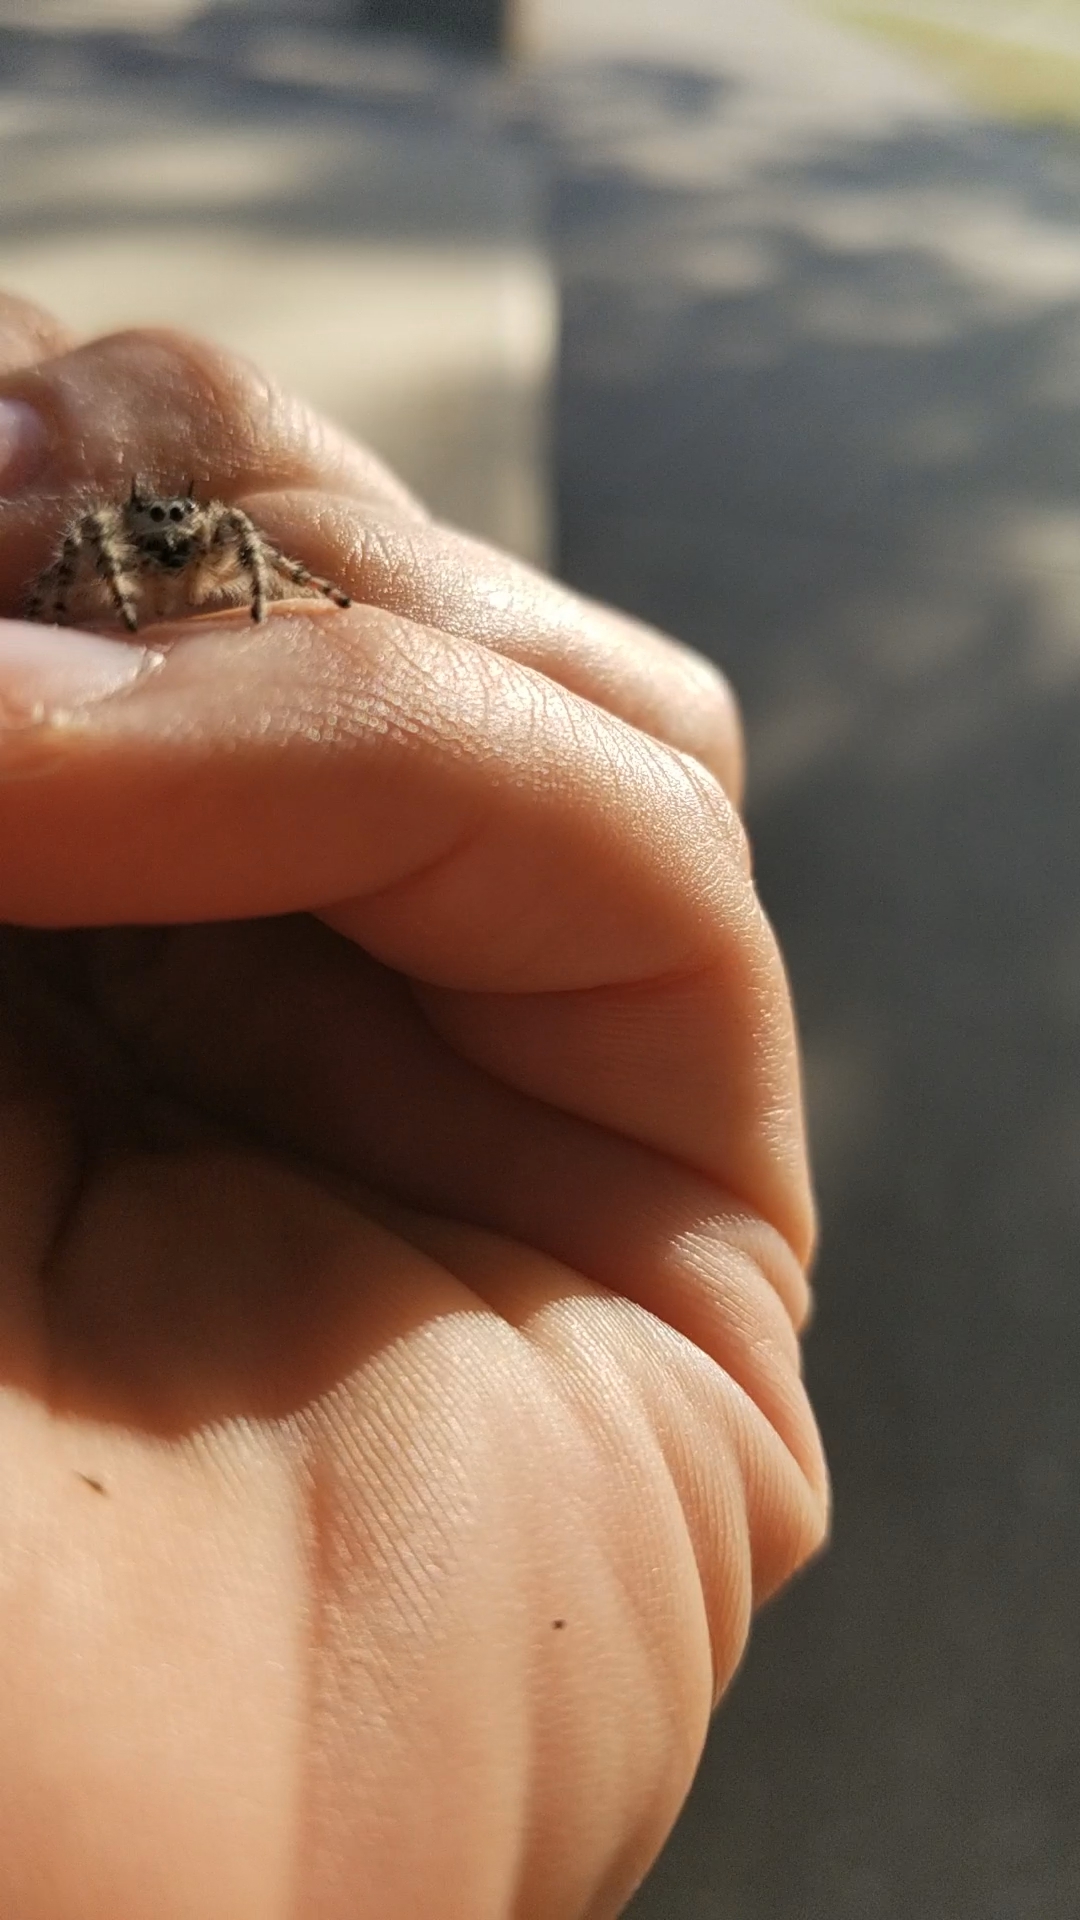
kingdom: Animalia
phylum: Arthropoda
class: Arachnida
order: Araneae
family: Salticidae
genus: Phidippus
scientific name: Phidippus otiosus
